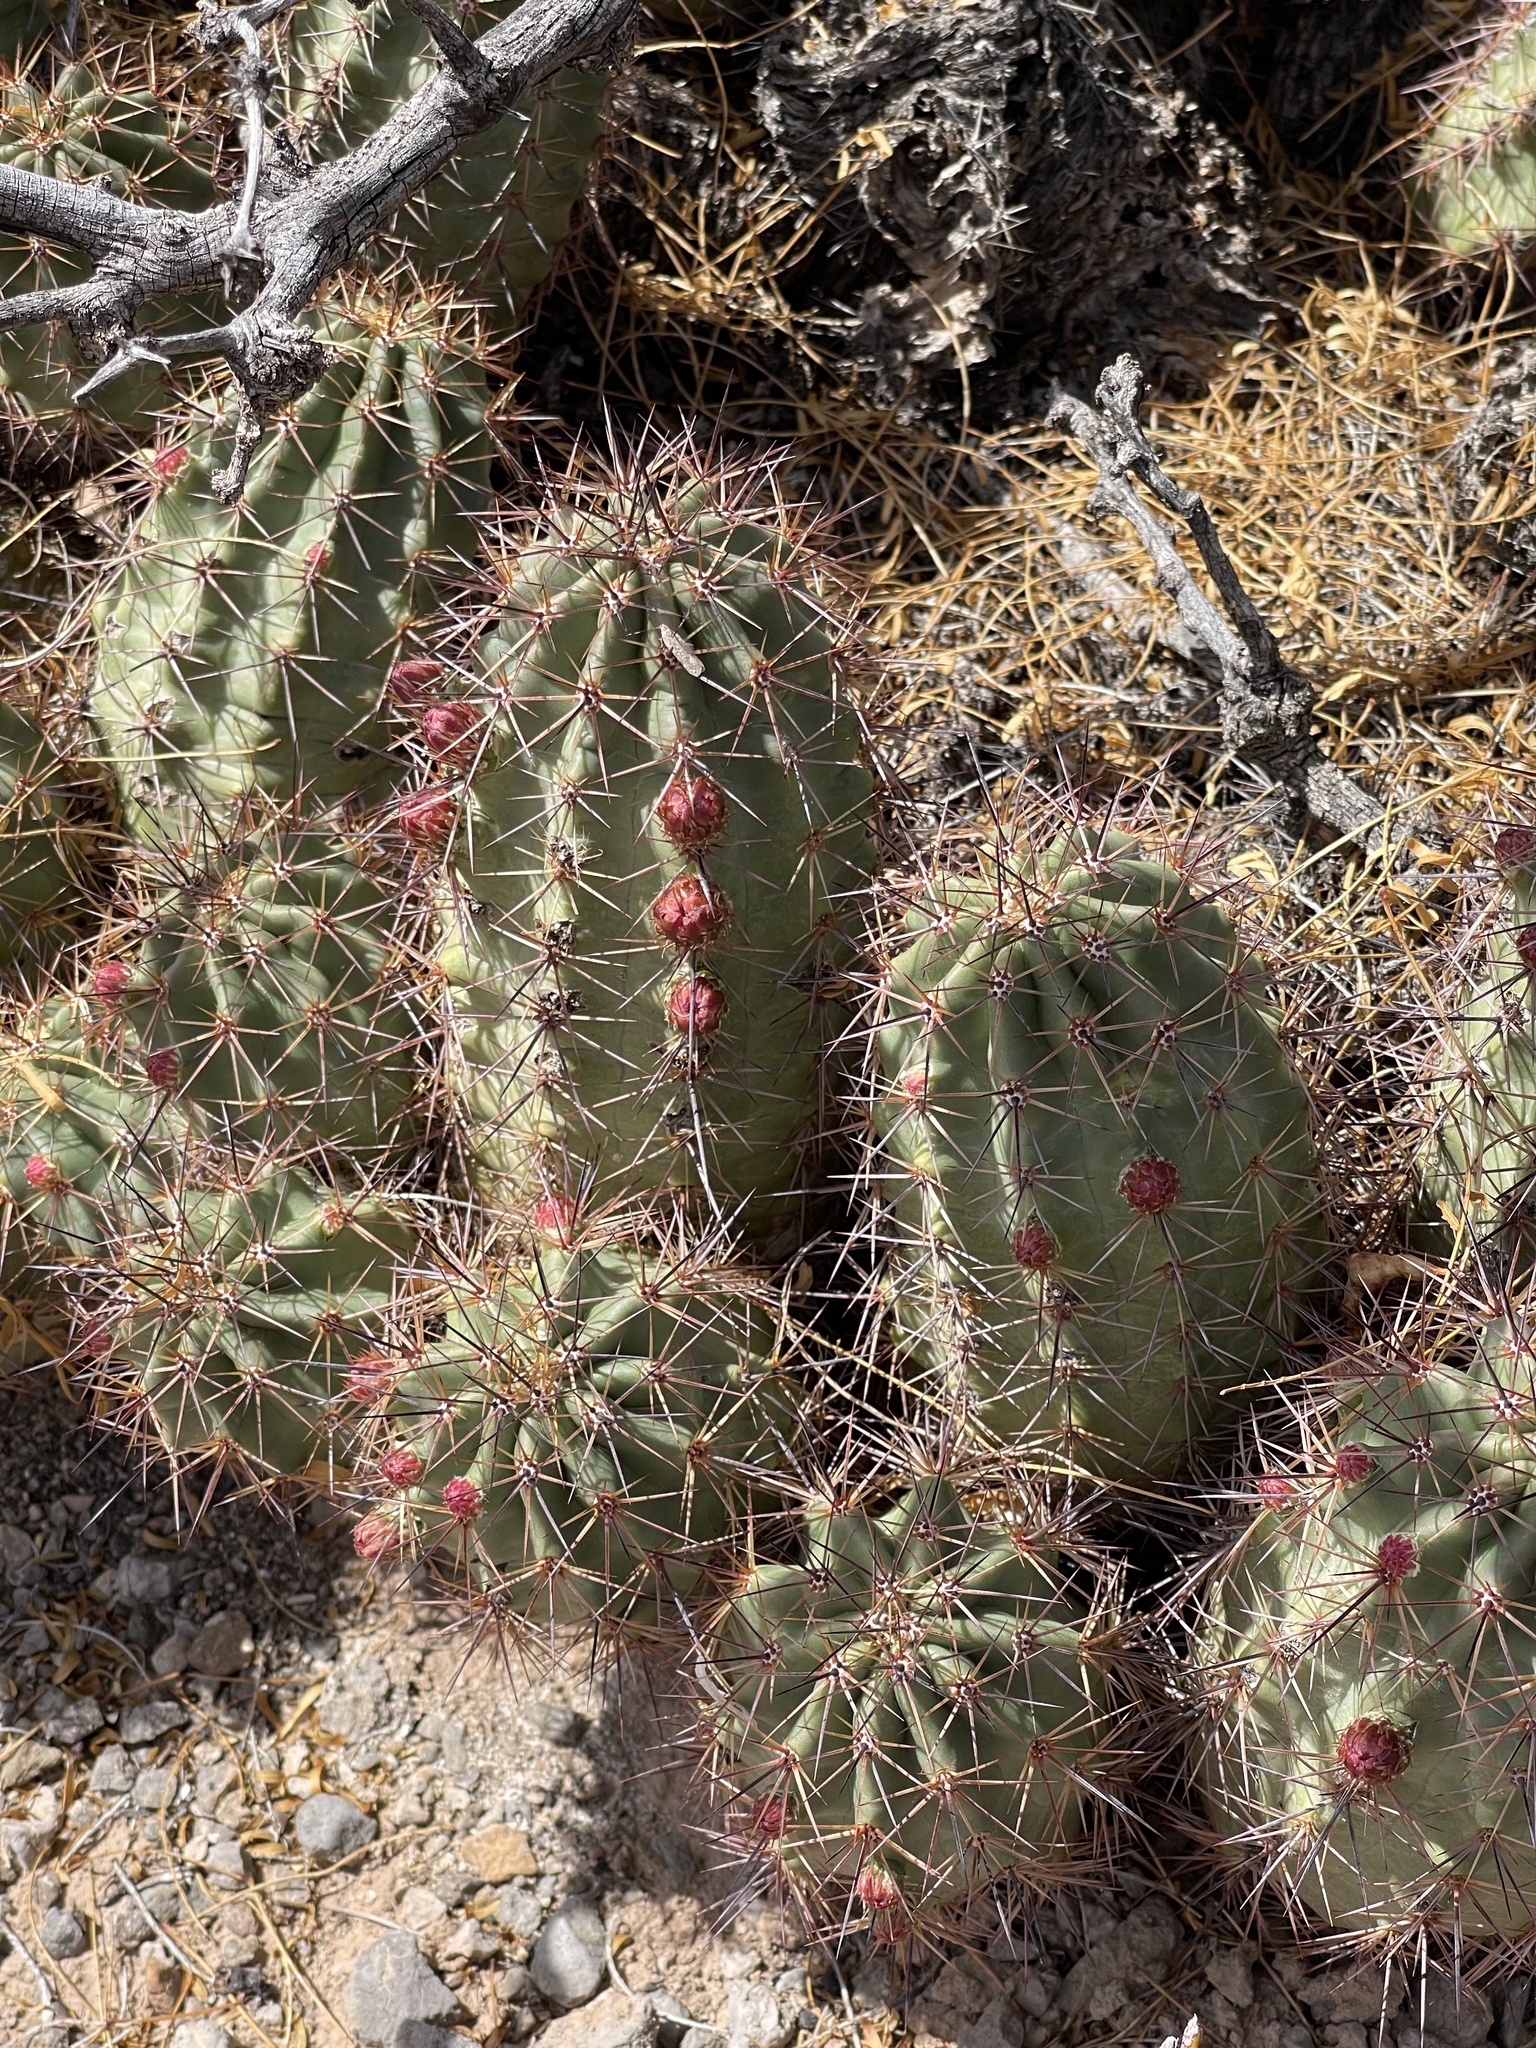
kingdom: Plantae
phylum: Tracheophyta
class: Magnoliopsida
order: Caryophyllales
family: Cactaceae
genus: Echinocereus
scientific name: Echinocereus coccineus
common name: Scarlet hedgehog cactus
